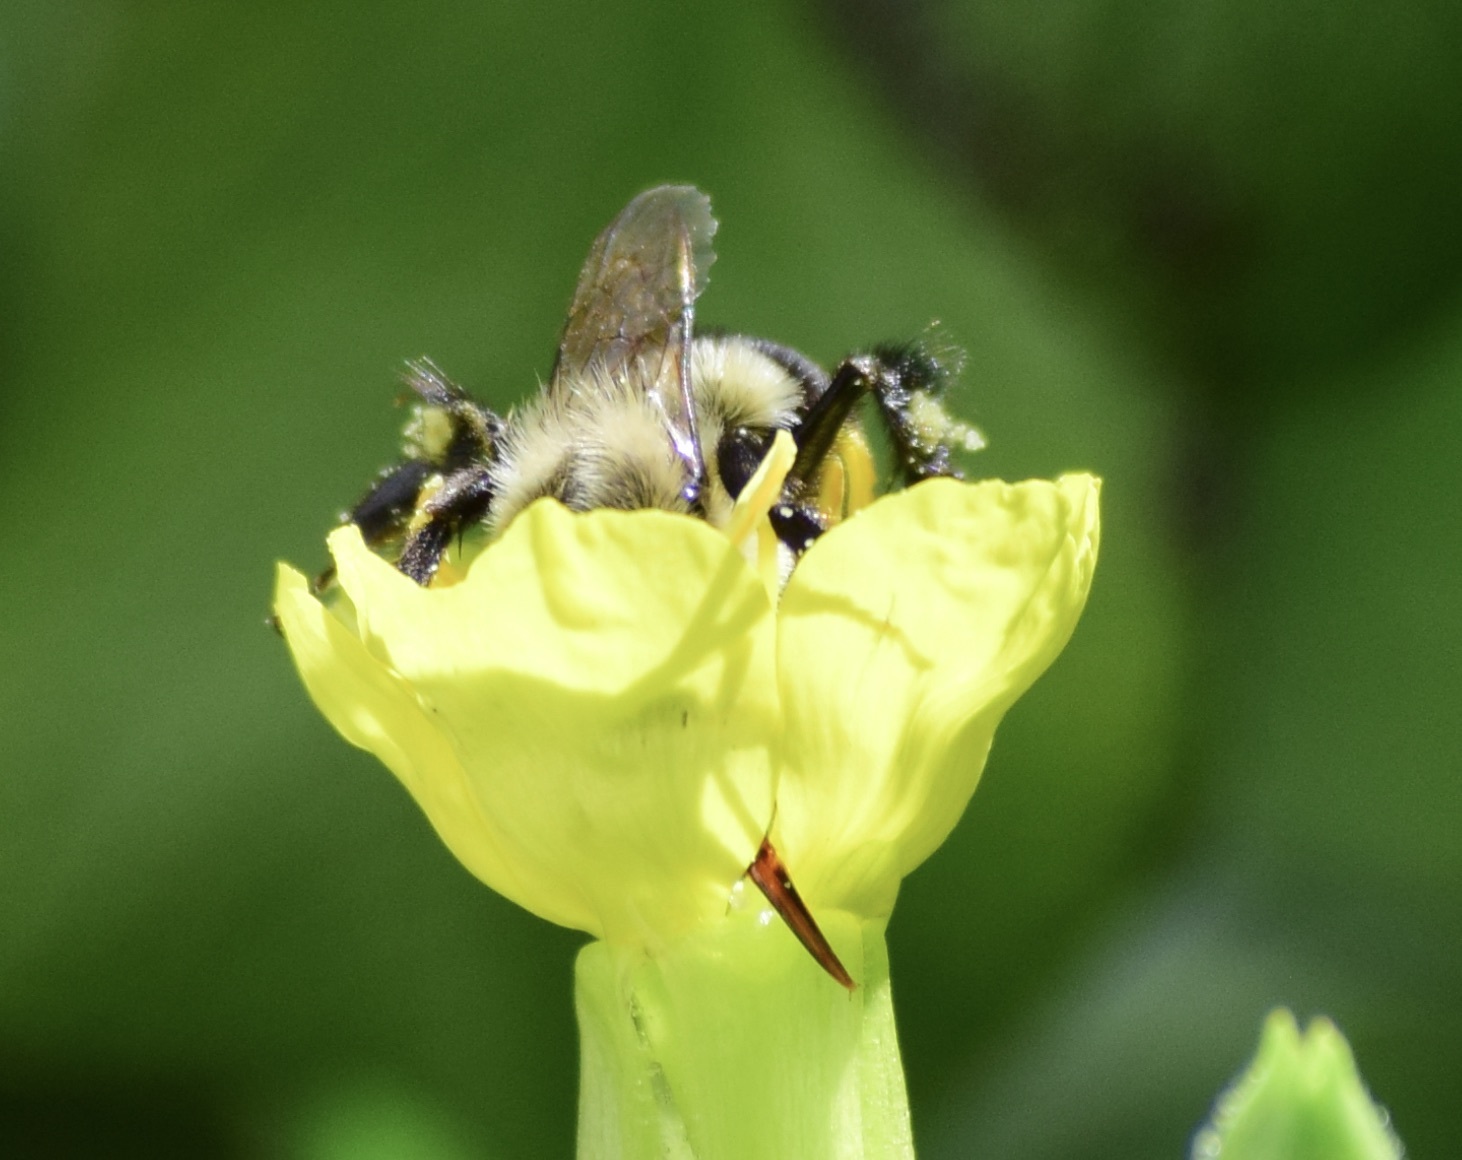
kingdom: Animalia
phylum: Arthropoda
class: Insecta
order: Hymenoptera
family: Apidae
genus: Bombus
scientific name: Bombus impatiens
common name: Common eastern bumble bee
